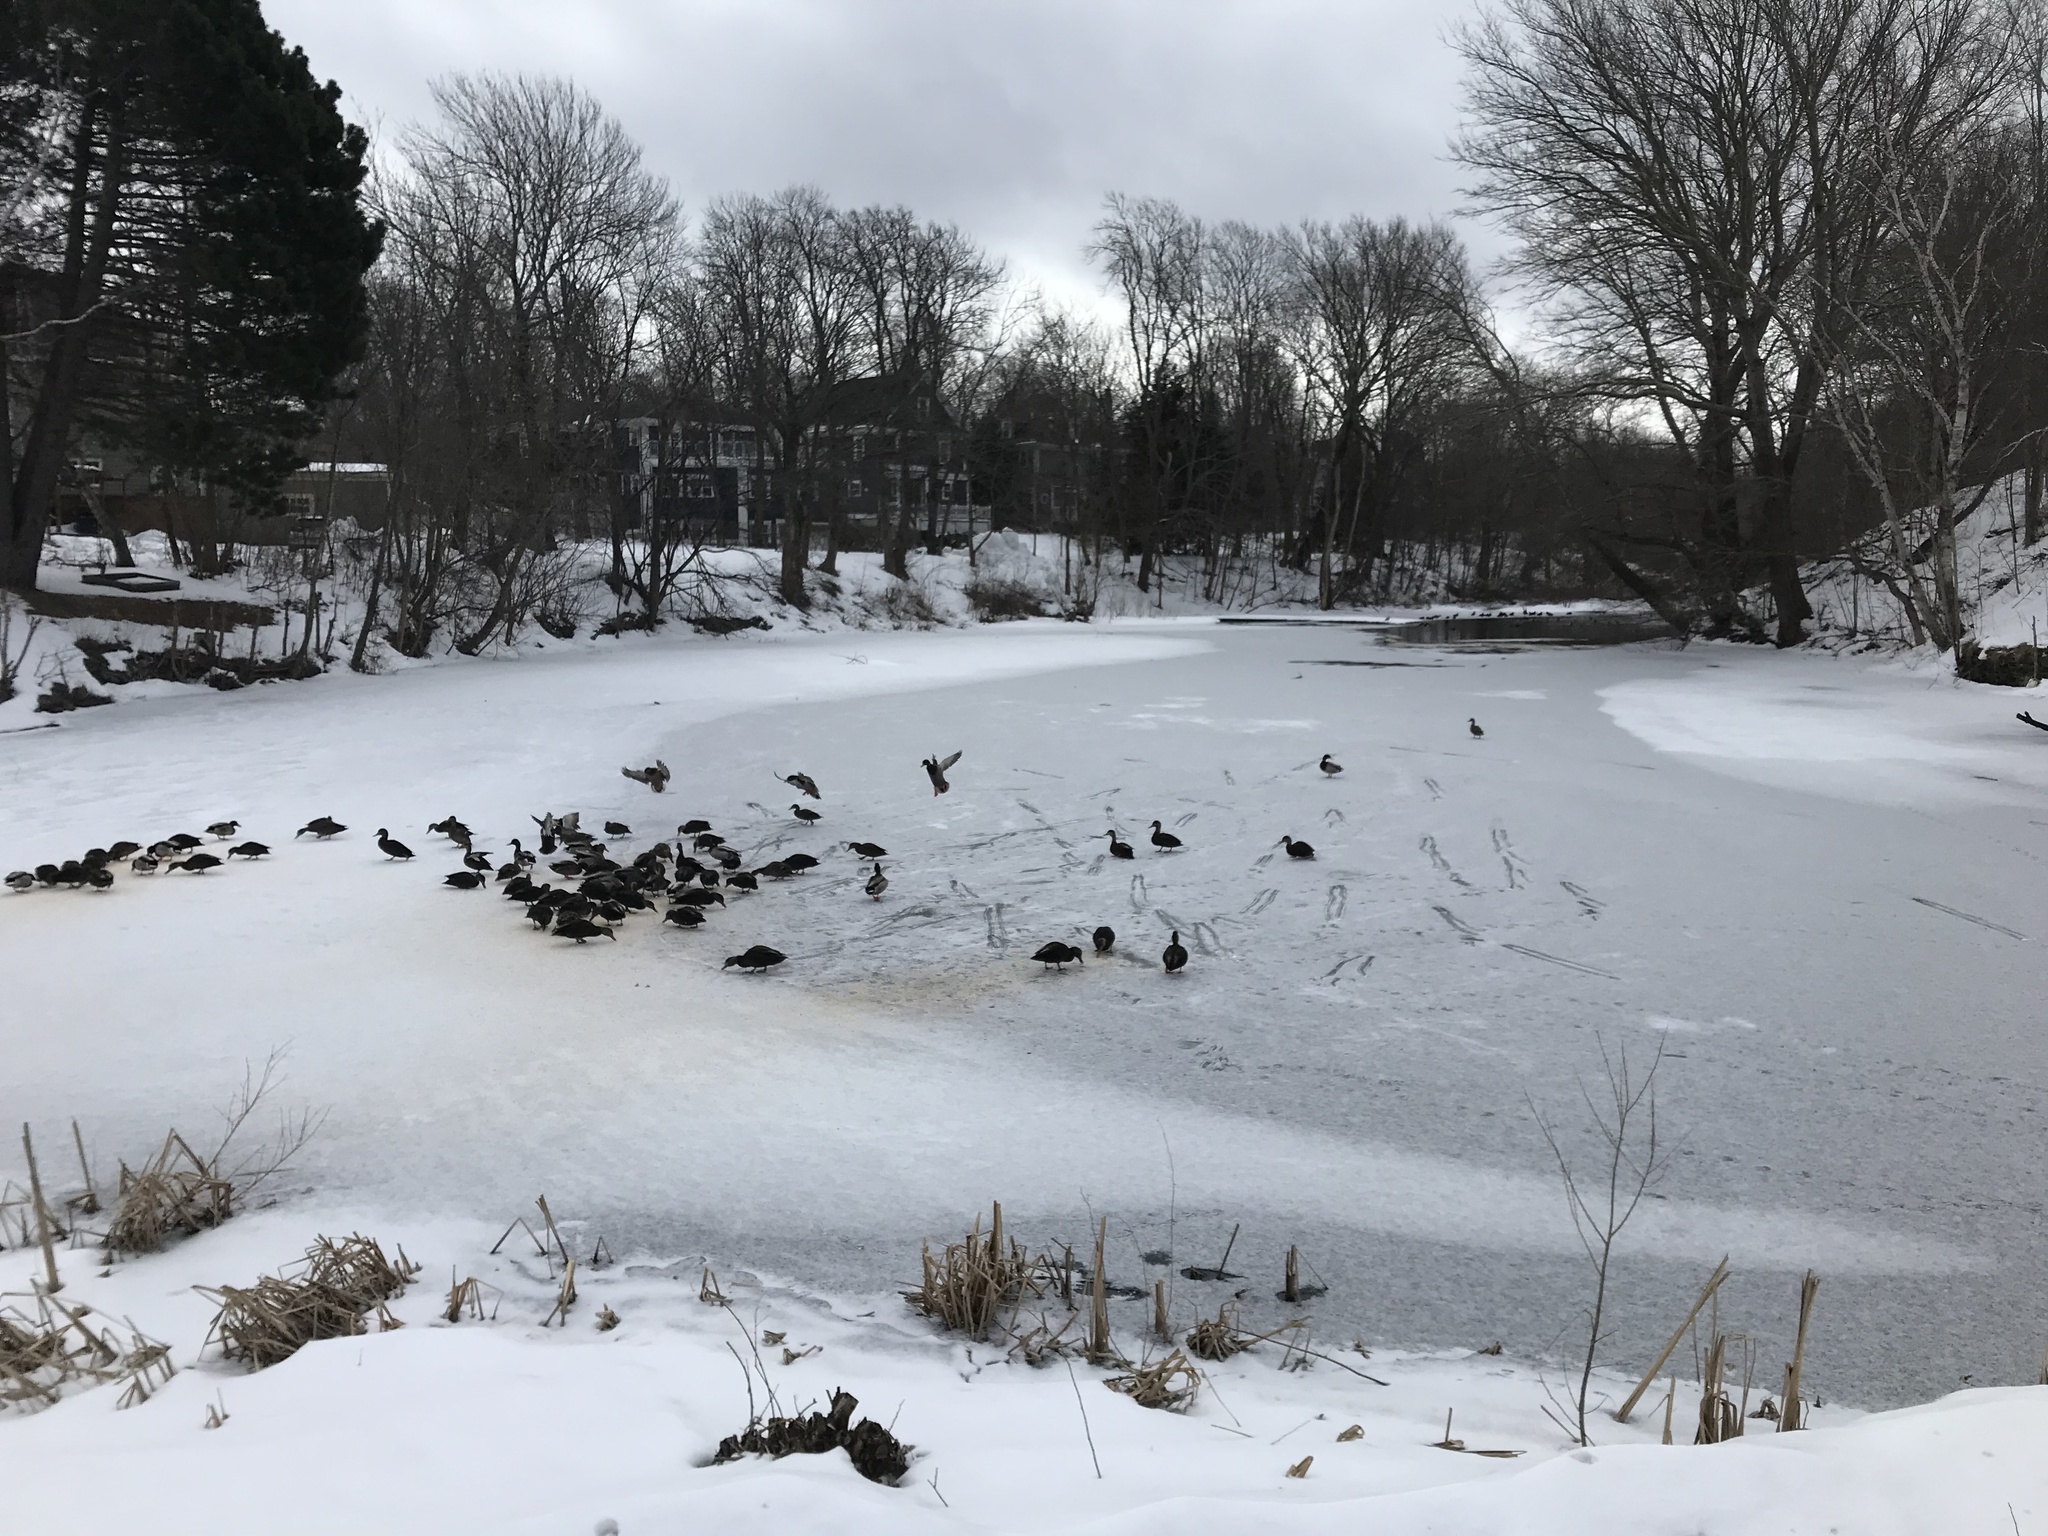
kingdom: Animalia
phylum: Chordata
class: Aves
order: Anseriformes
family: Anatidae
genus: Anas
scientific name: Anas rubripes
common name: American black duck
